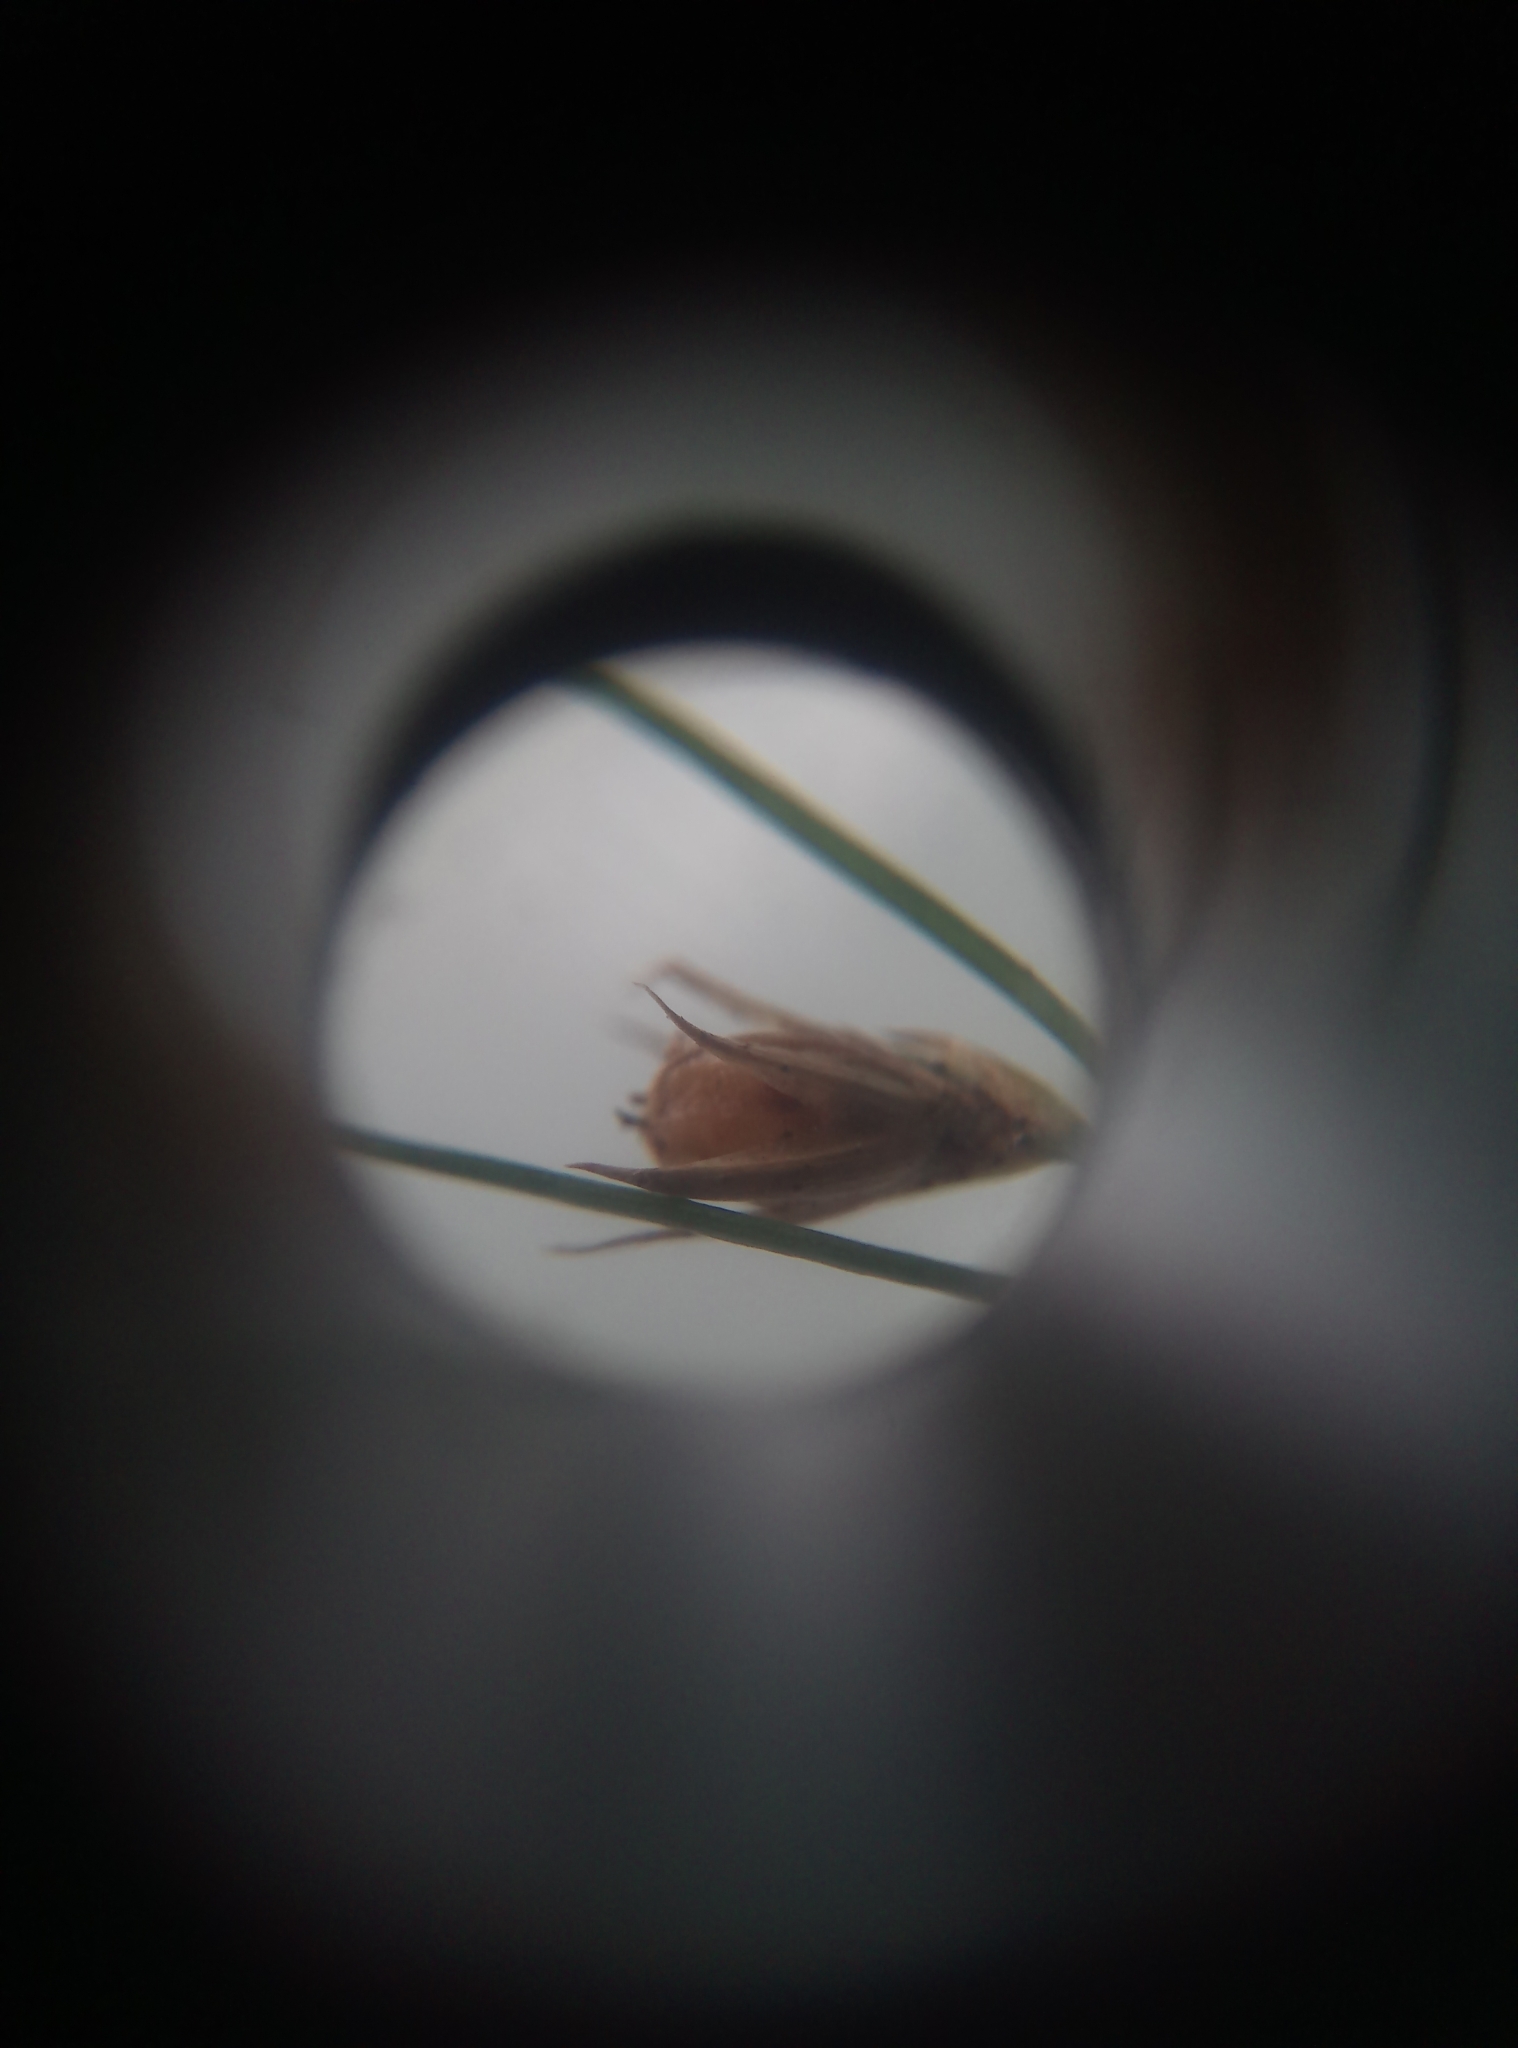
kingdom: Plantae
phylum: Tracheophyta
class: Liliopsida
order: Poales
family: Juncaceae
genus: Juncus
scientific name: Juncus tenuis
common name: Slender rush
